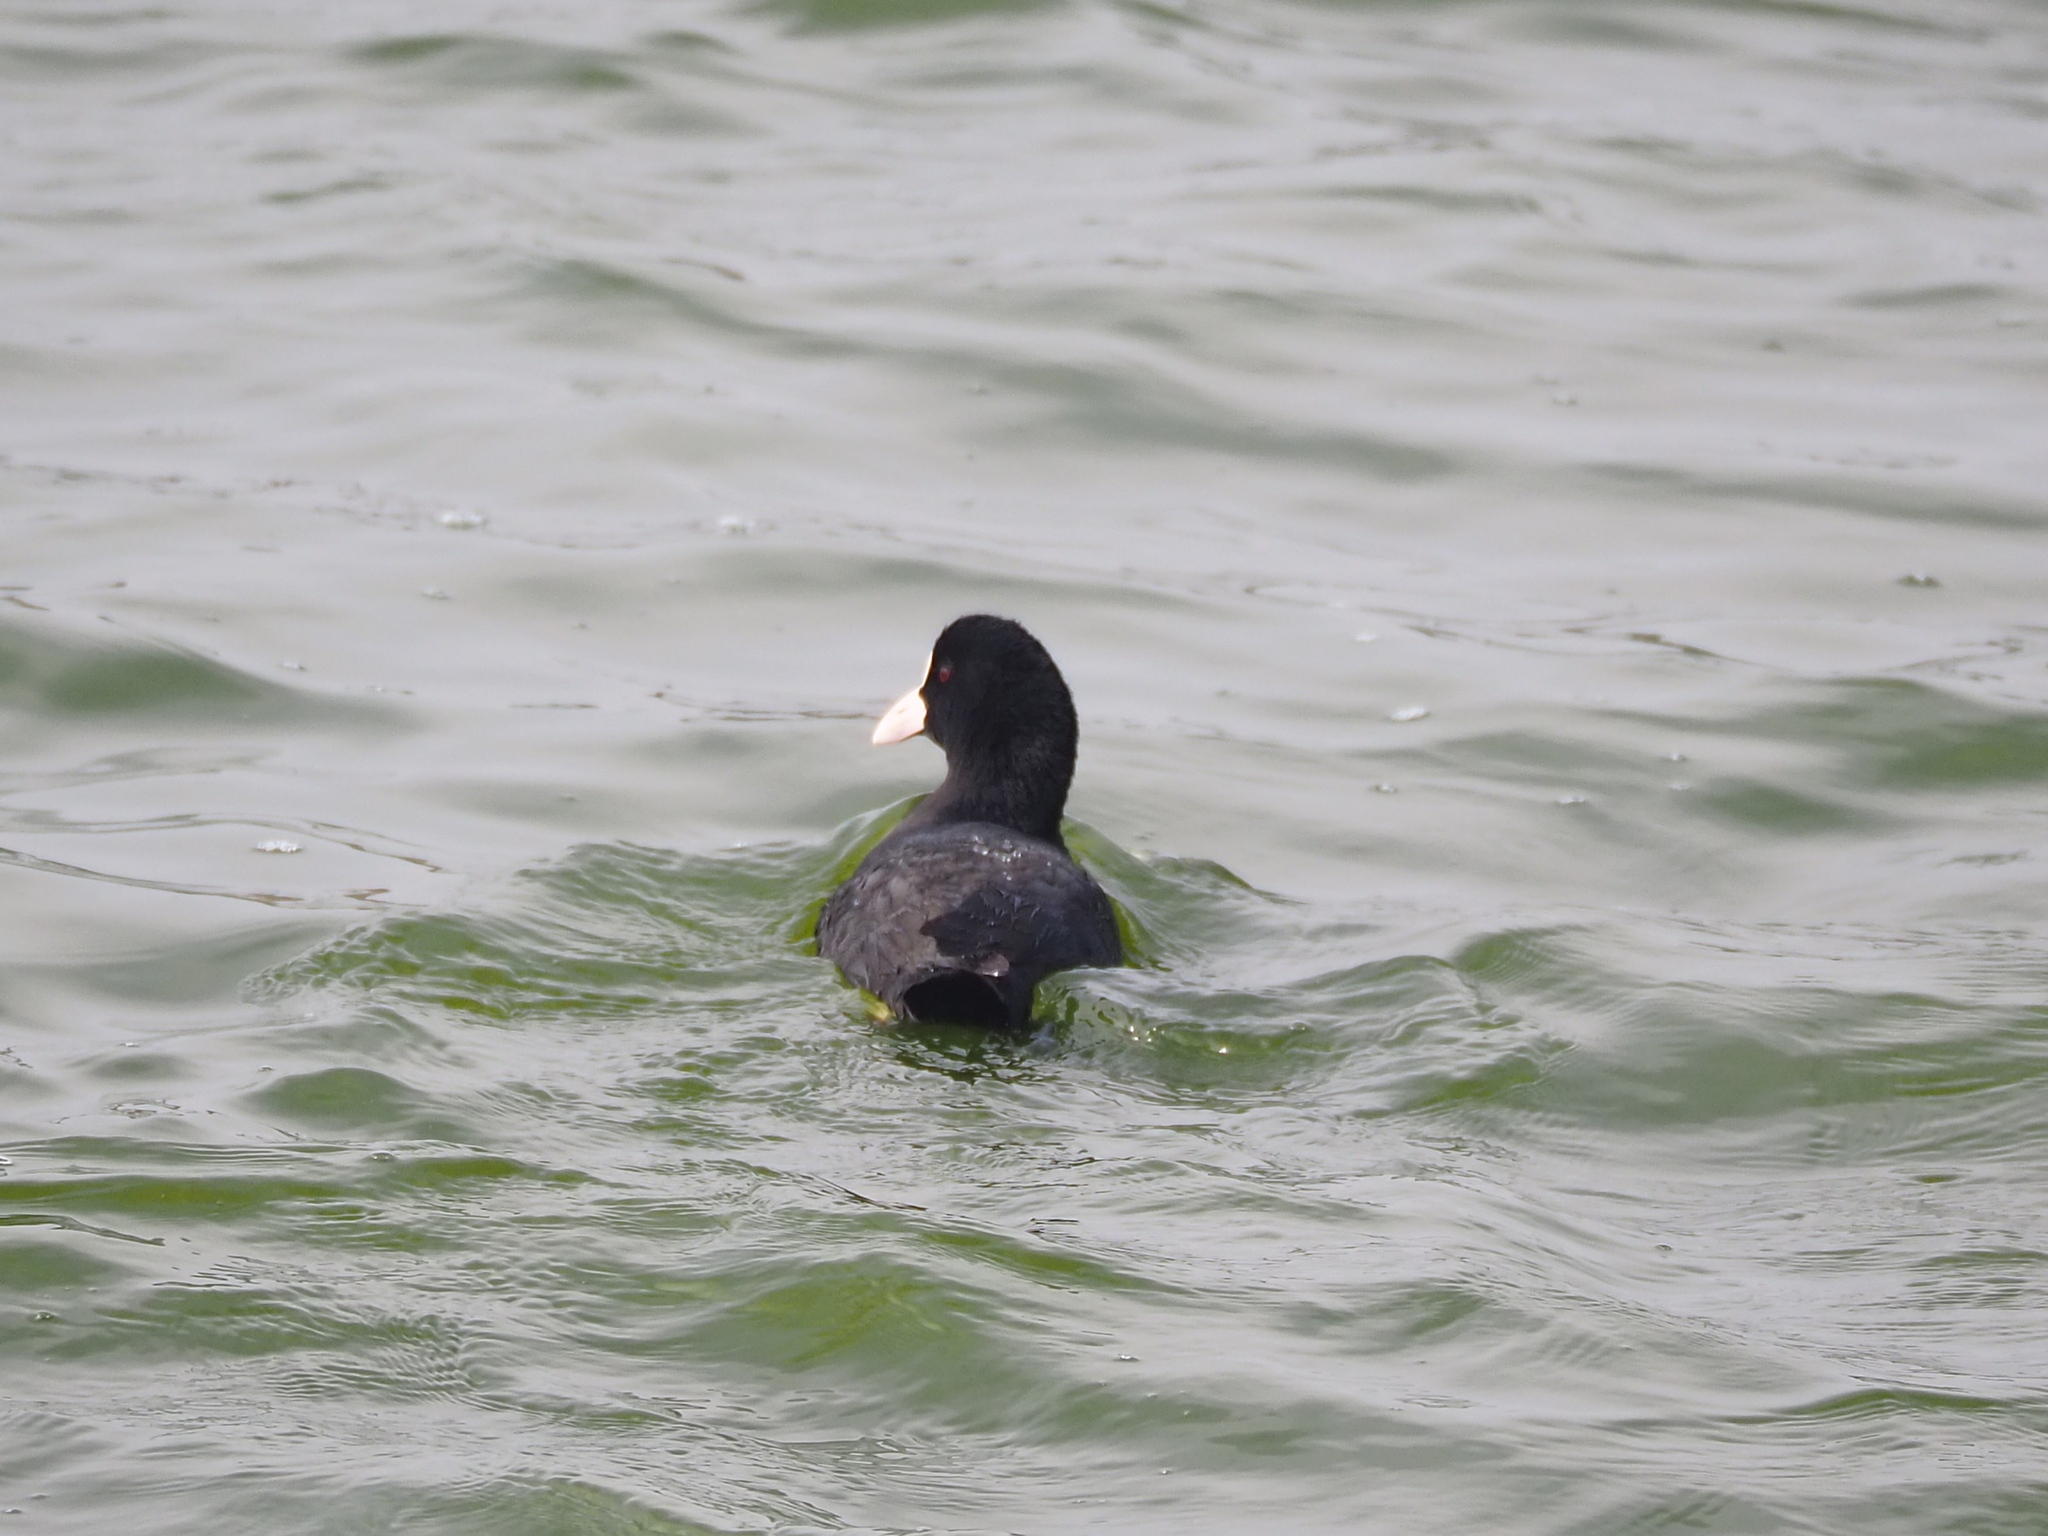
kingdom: Animalia
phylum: Chordata
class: Aves
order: Gruiformes
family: Rallidae
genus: Fulica
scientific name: Fulica atra
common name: Eurasian coot
